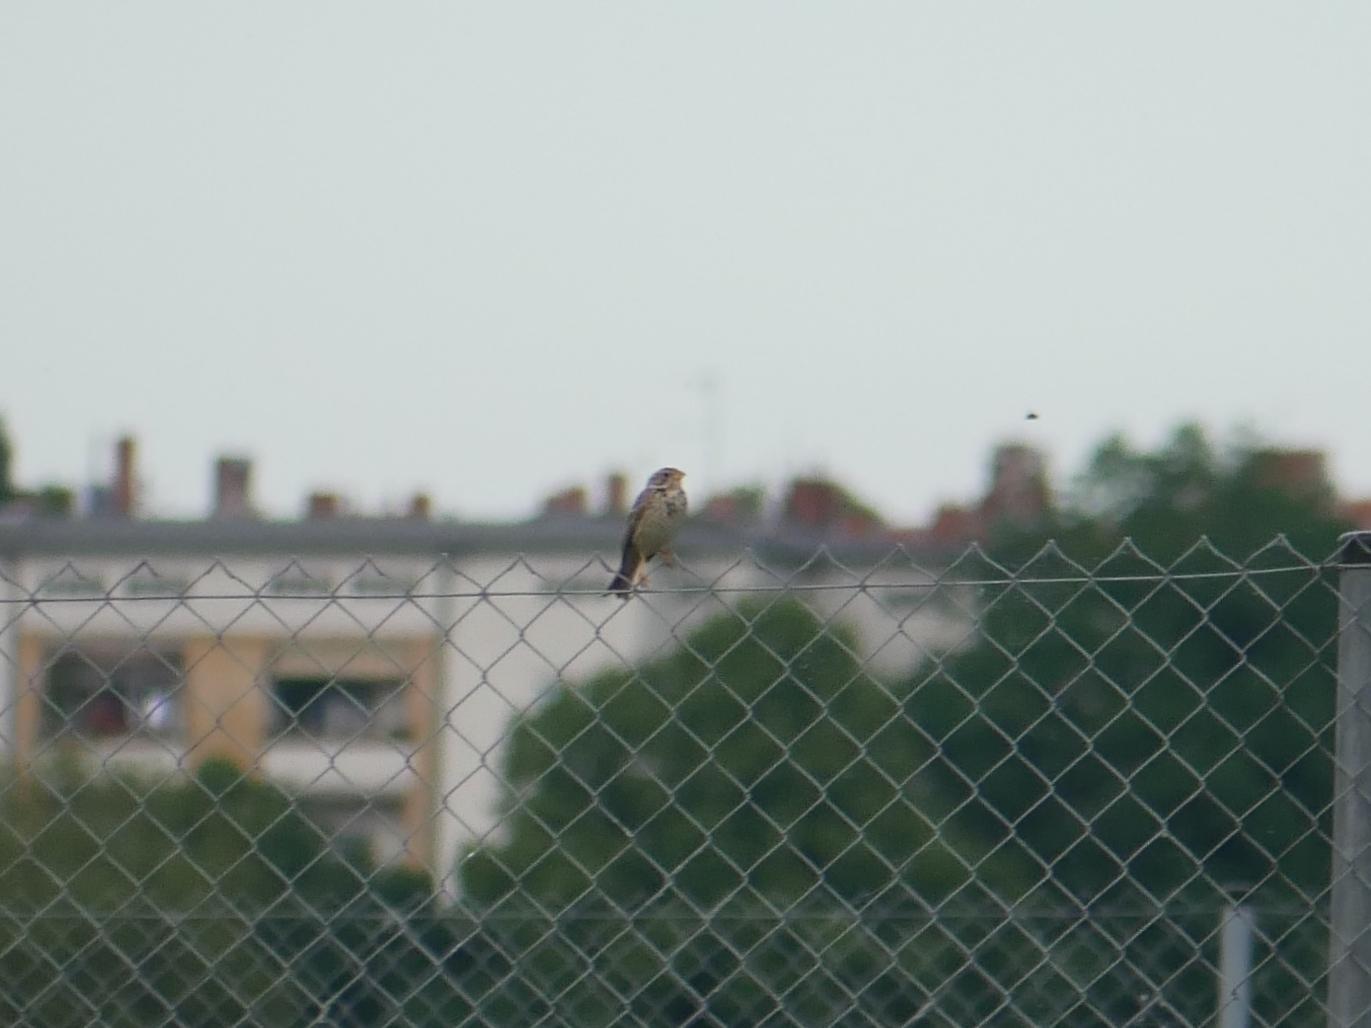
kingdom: Animalia
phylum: Chordata
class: Aves
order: Passeriformes
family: Emberizidae
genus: Emberiza
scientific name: Emberiza calandra
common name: Corn bunting
